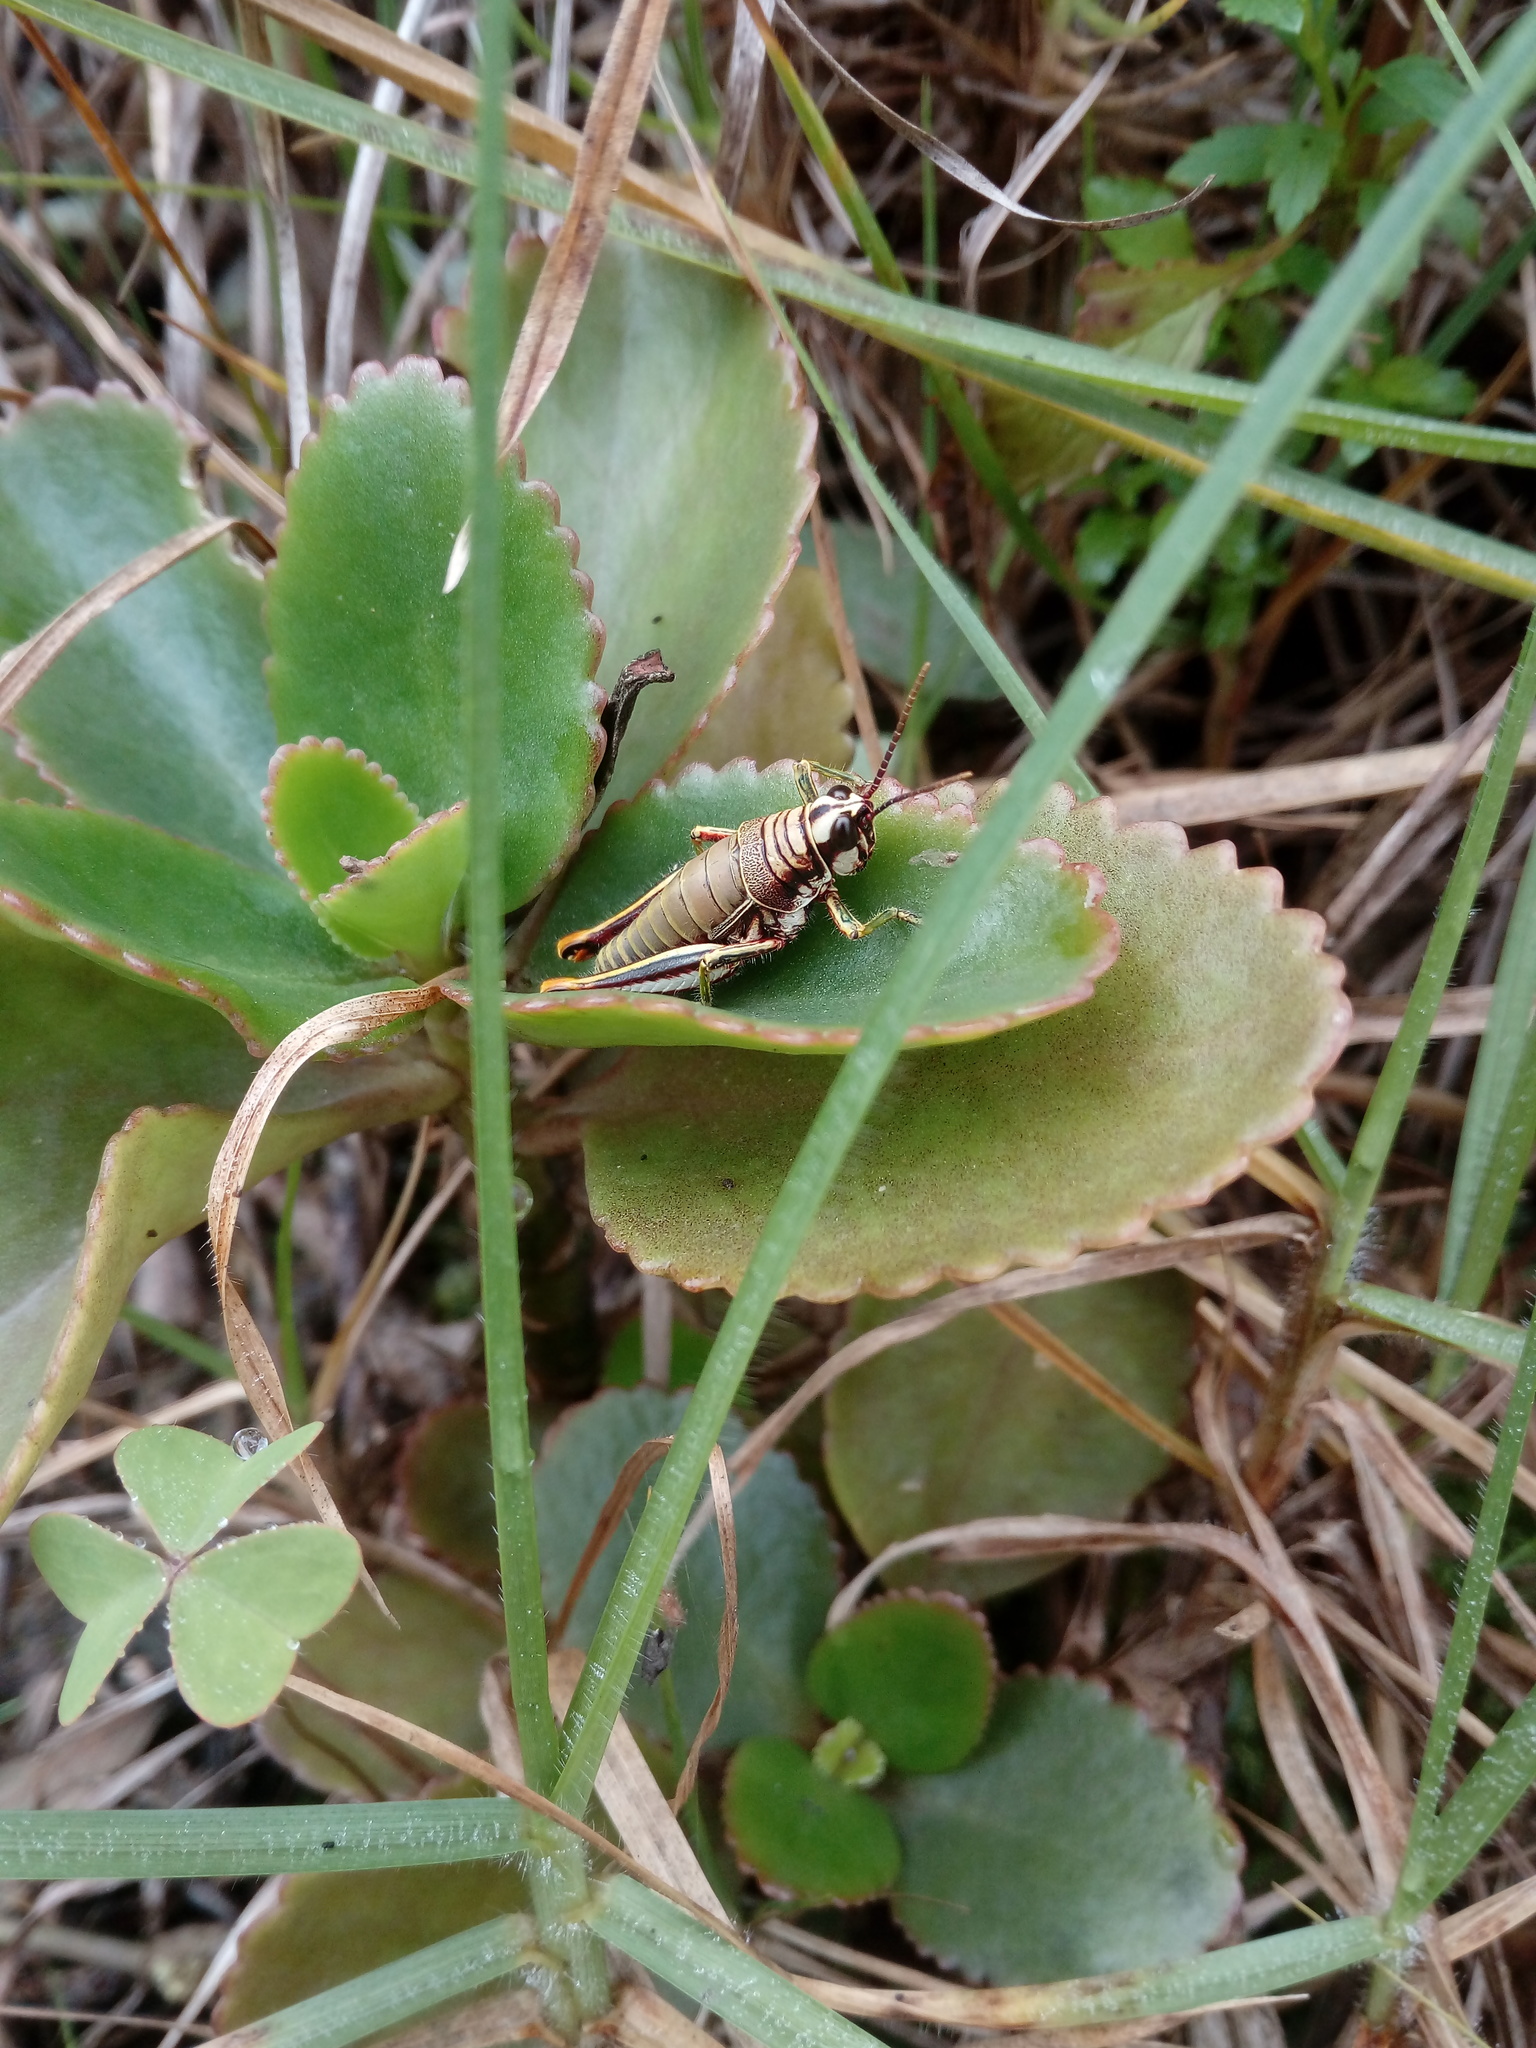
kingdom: Animalia
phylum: Arthropoda
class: Insecta
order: Orthoptera
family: Acrididae
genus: Agesander
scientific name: Agesander ruficornis
